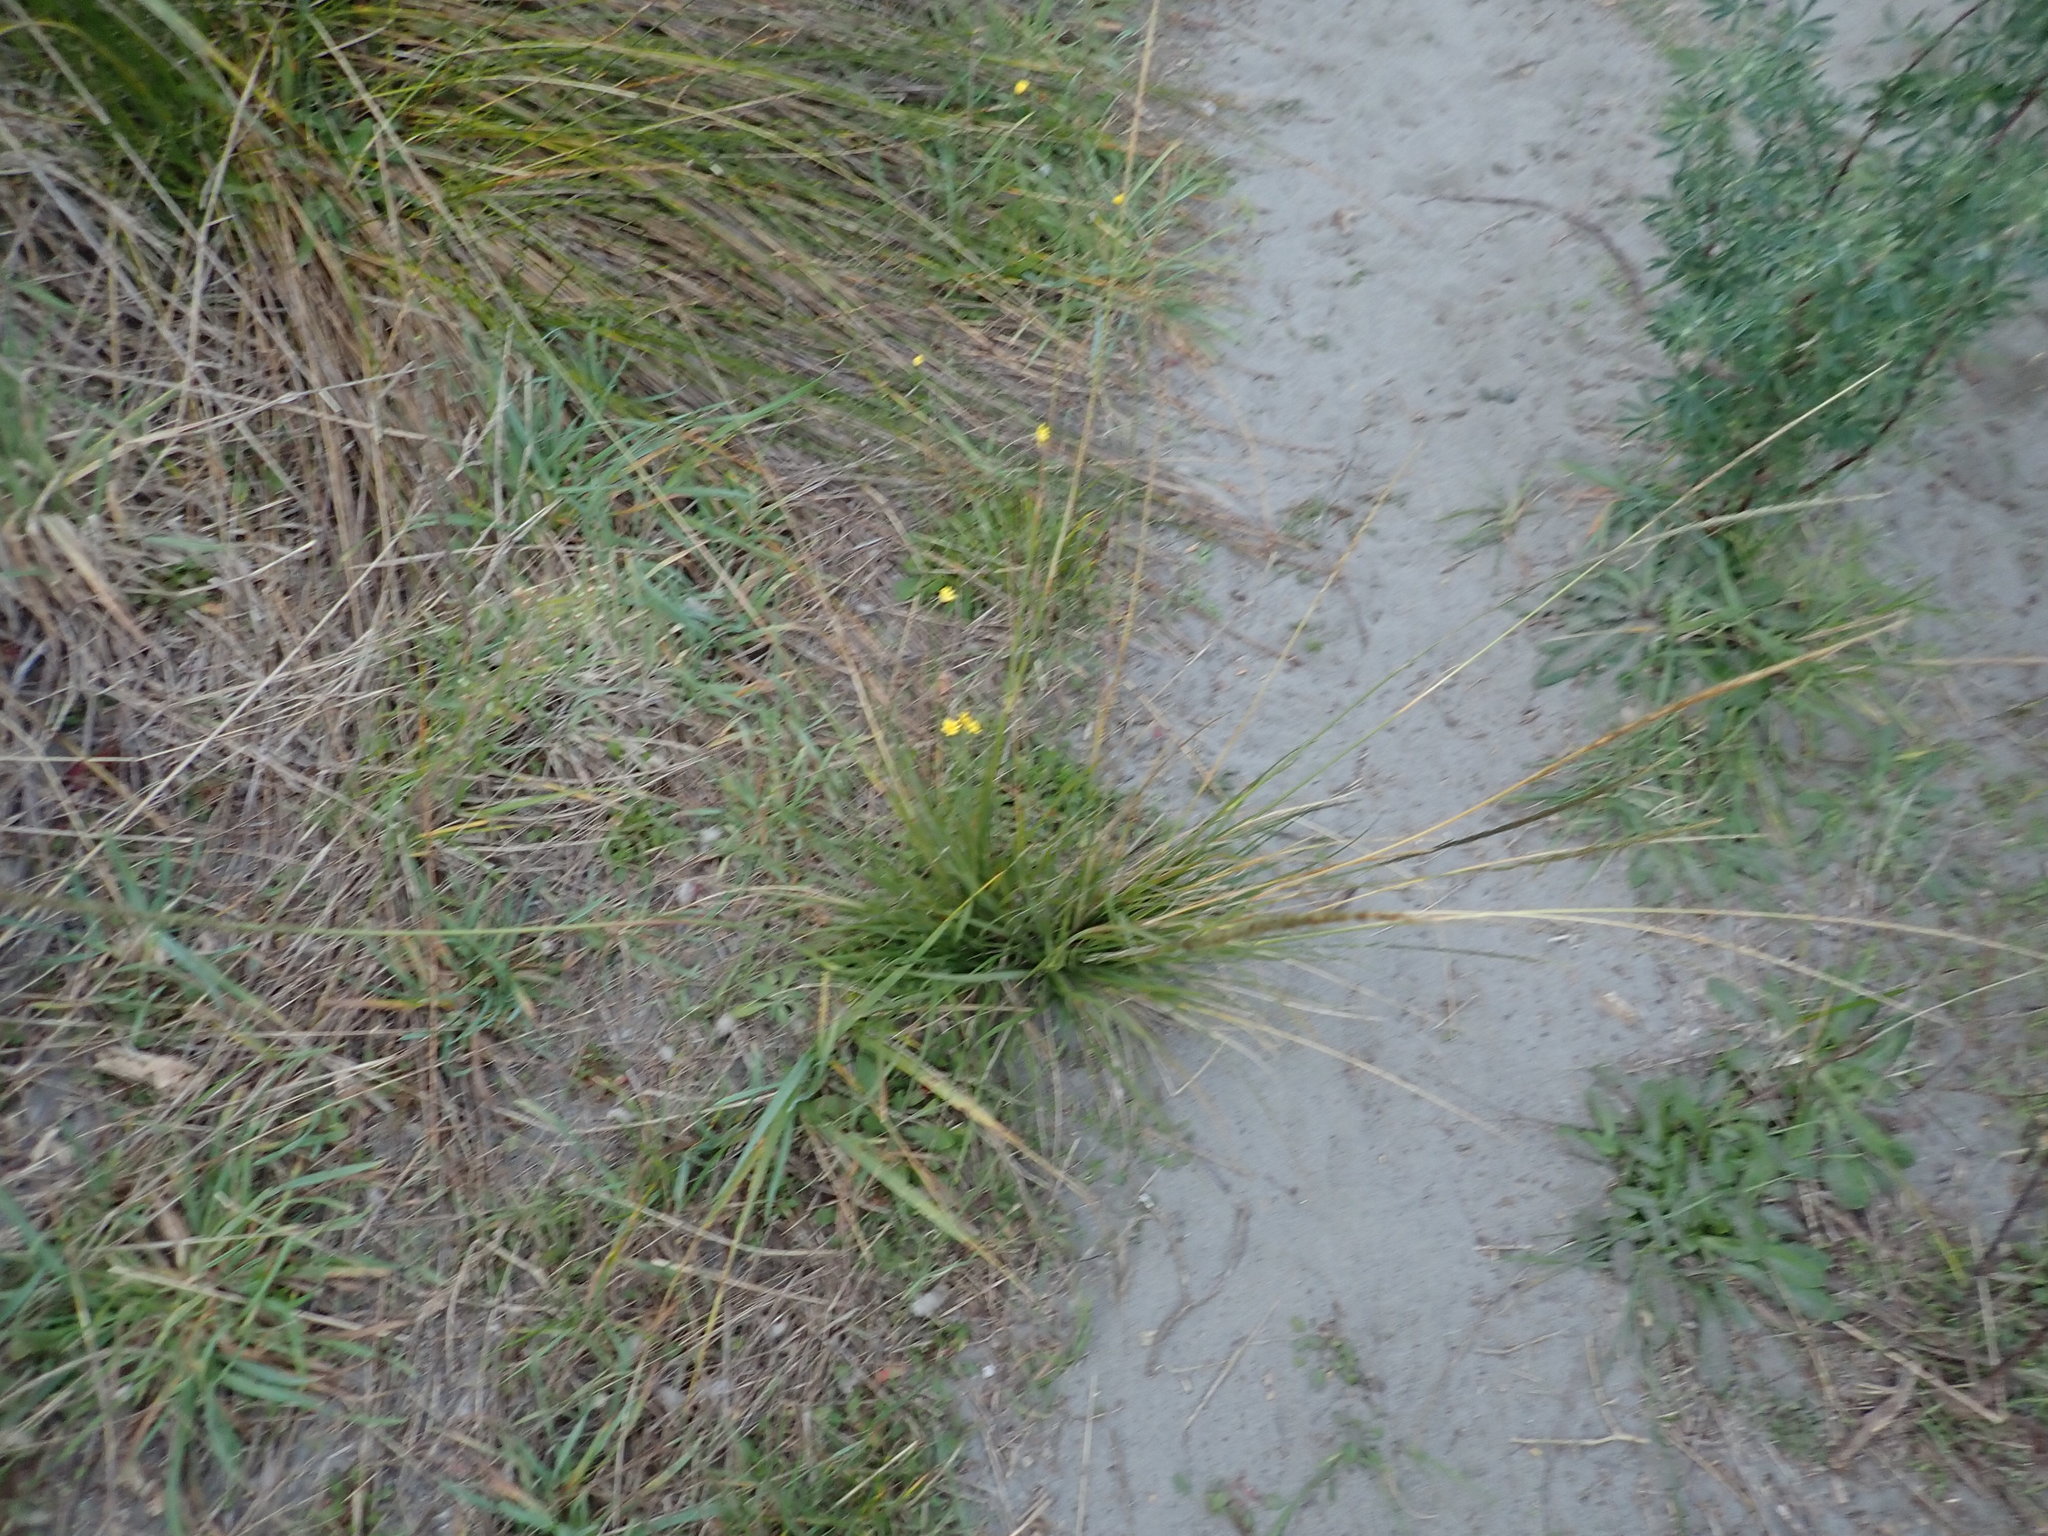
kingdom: Plantae
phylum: Tracheophyta
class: Liliopsida
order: Poales
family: Poaceae
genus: Sporobolus
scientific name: Sporobolus africanus
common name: African dropseed
